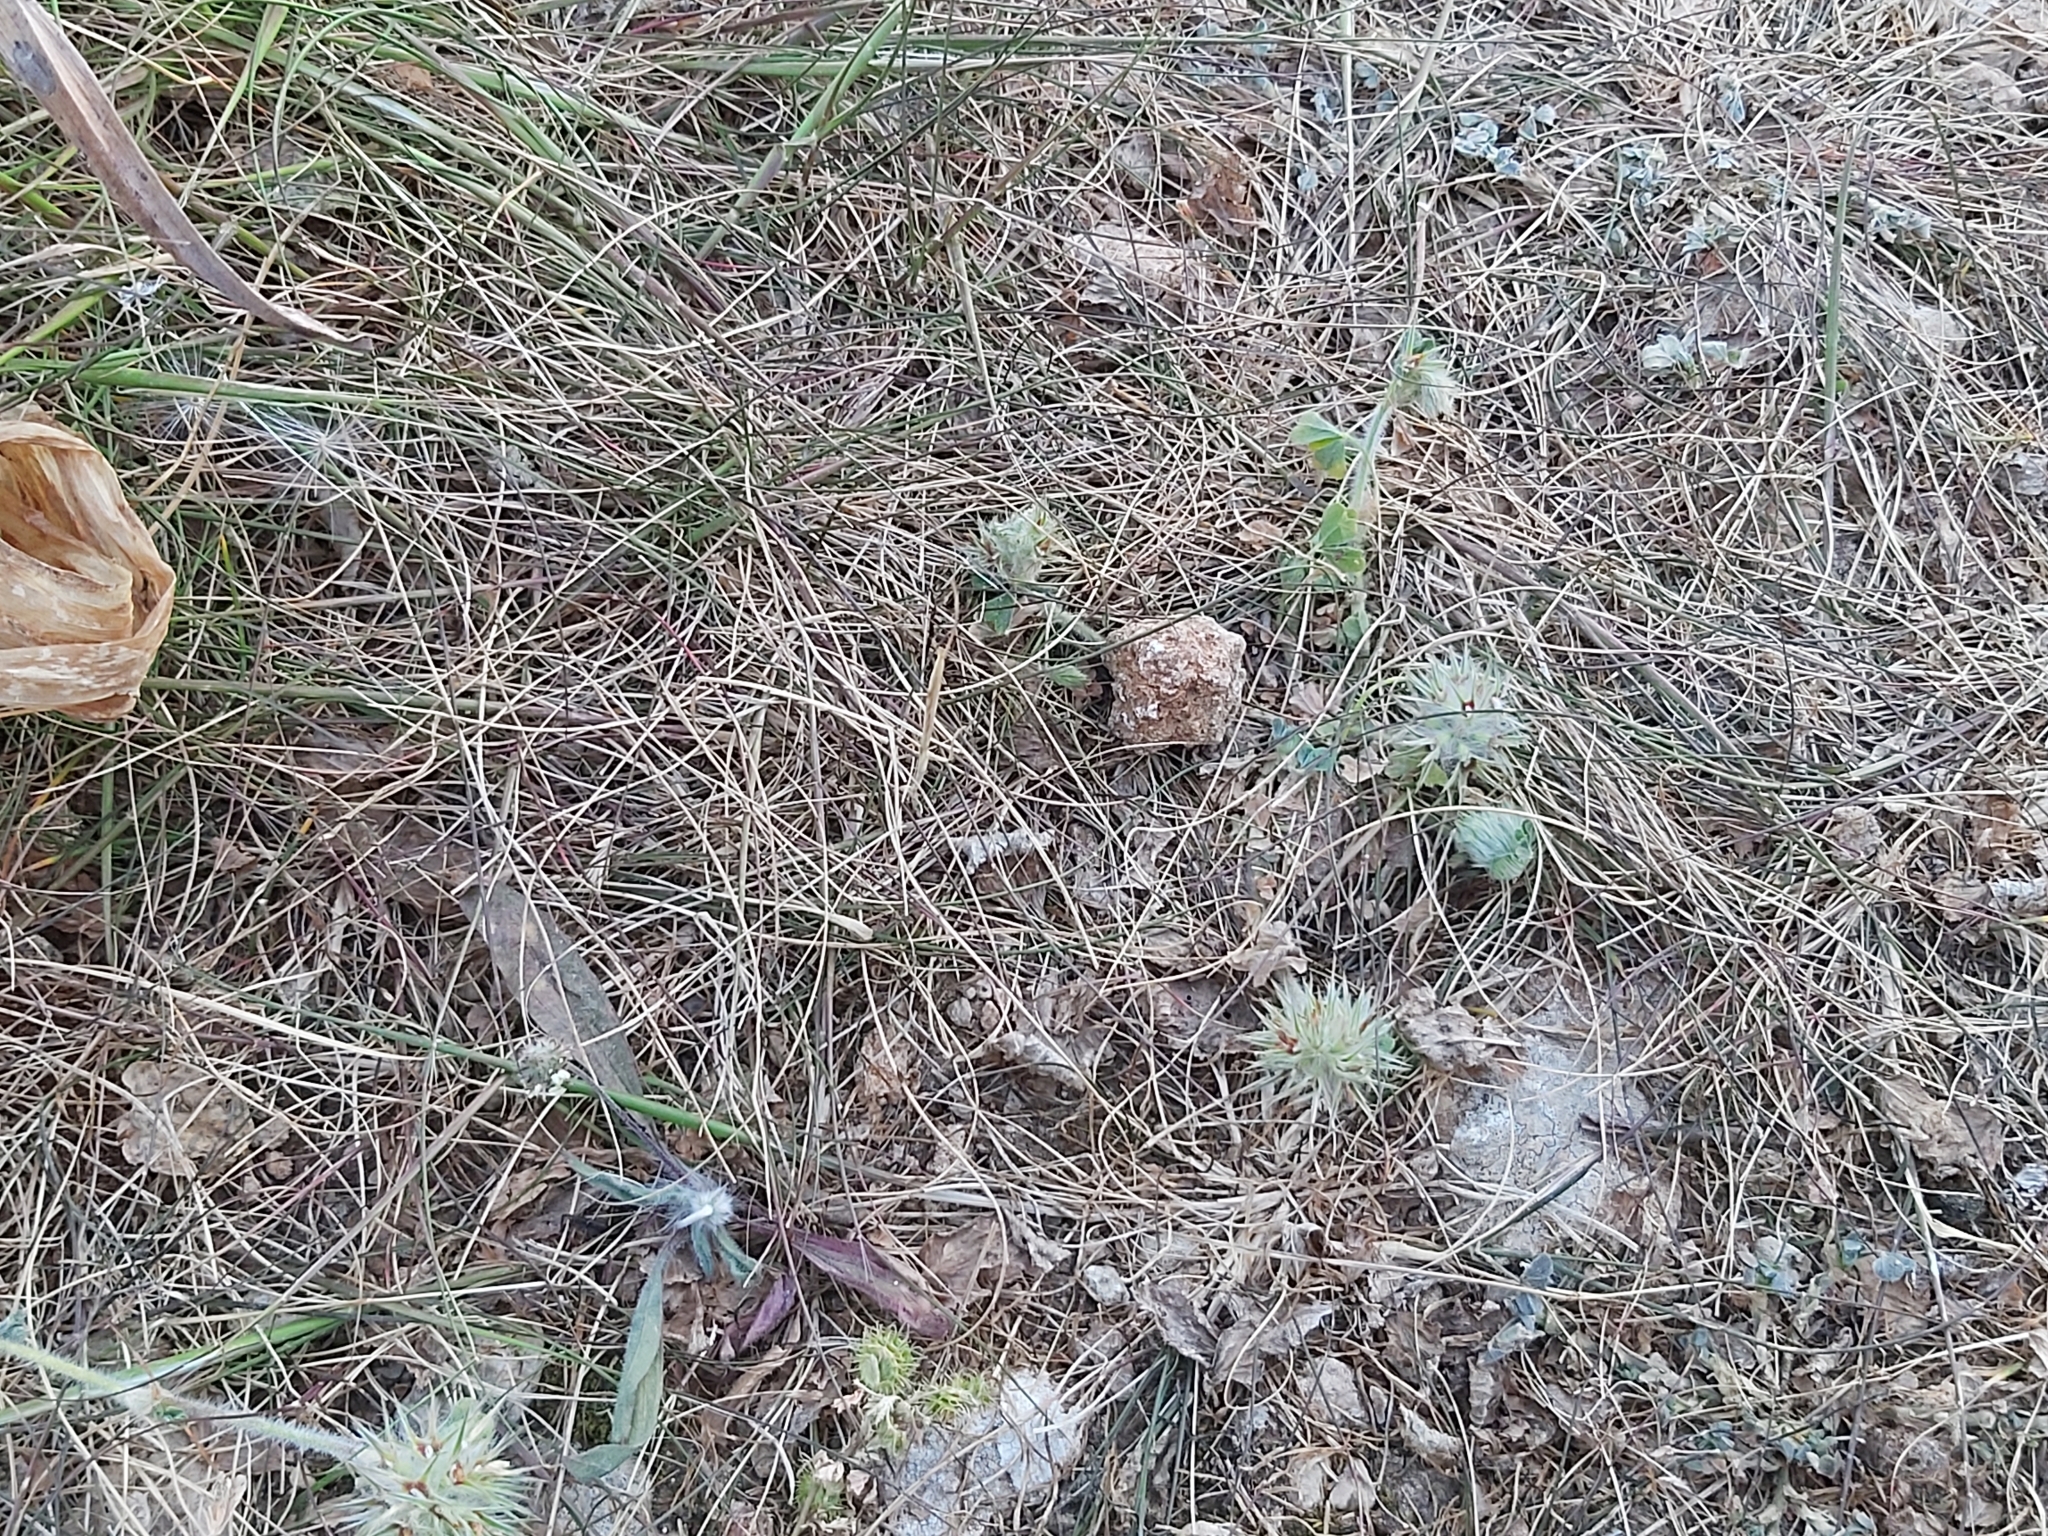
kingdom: Plantae
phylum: Tracheophyta
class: Magnoliopsida
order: Fabales
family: Fabaceae
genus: Trifolium
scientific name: Trifolium stellatum
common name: Starry clover
